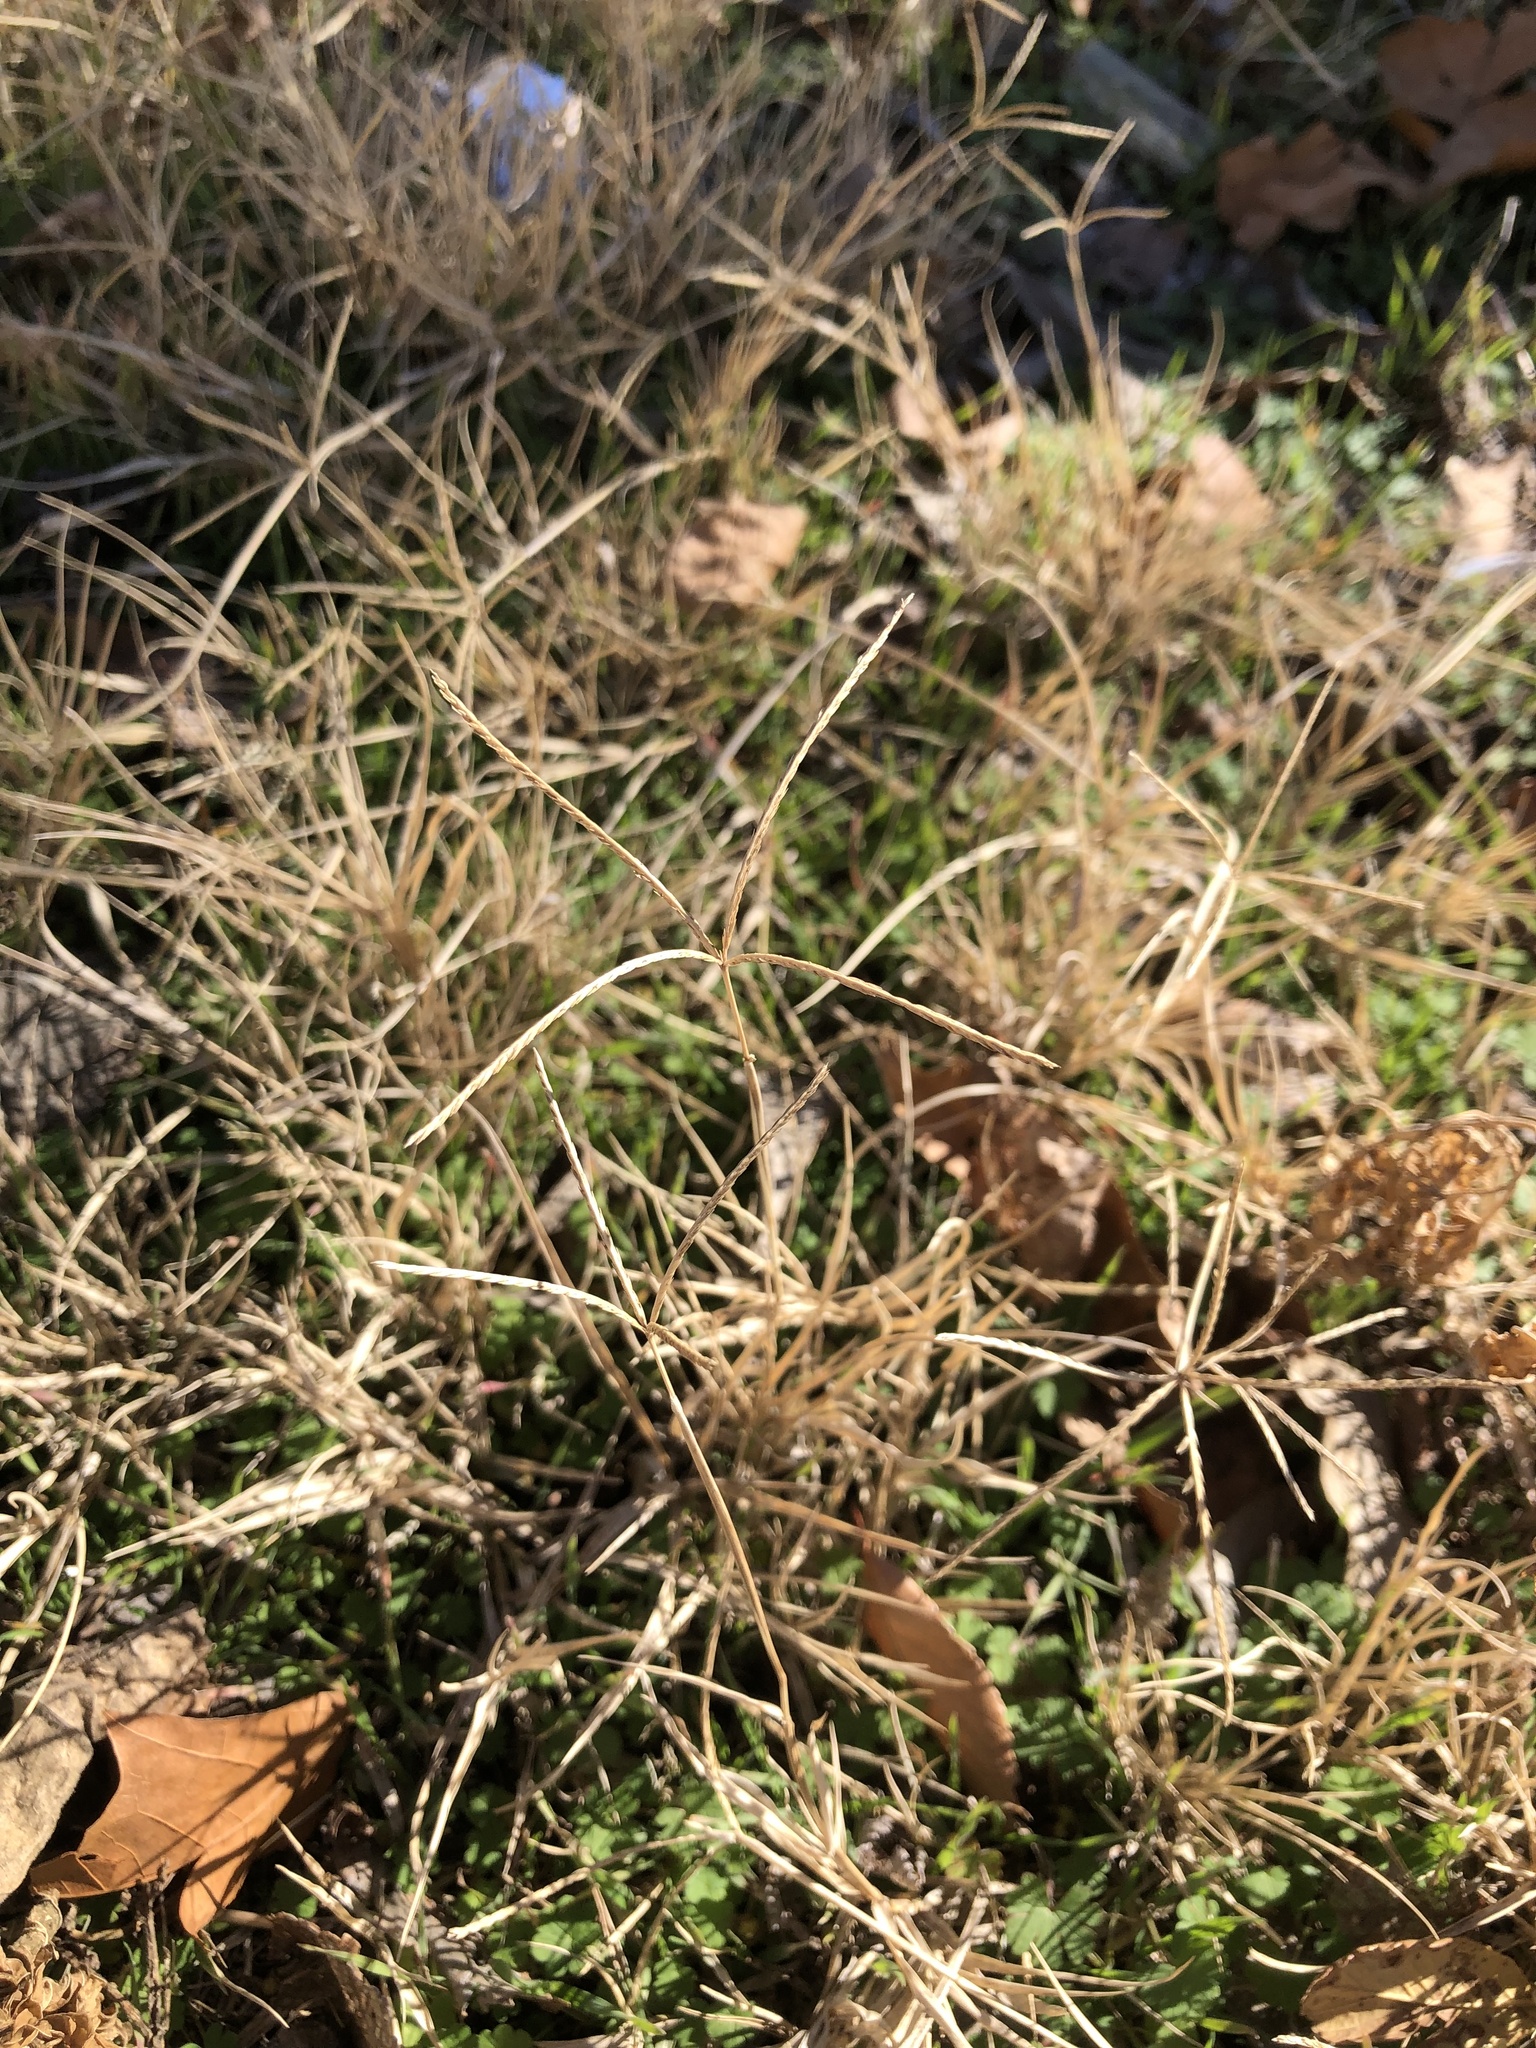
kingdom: Plantae
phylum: Tracheophyta
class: Liliopsida
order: Poales
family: Poaceae
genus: Cynodon
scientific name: Cynodon dactylon
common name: Bermuda grass
